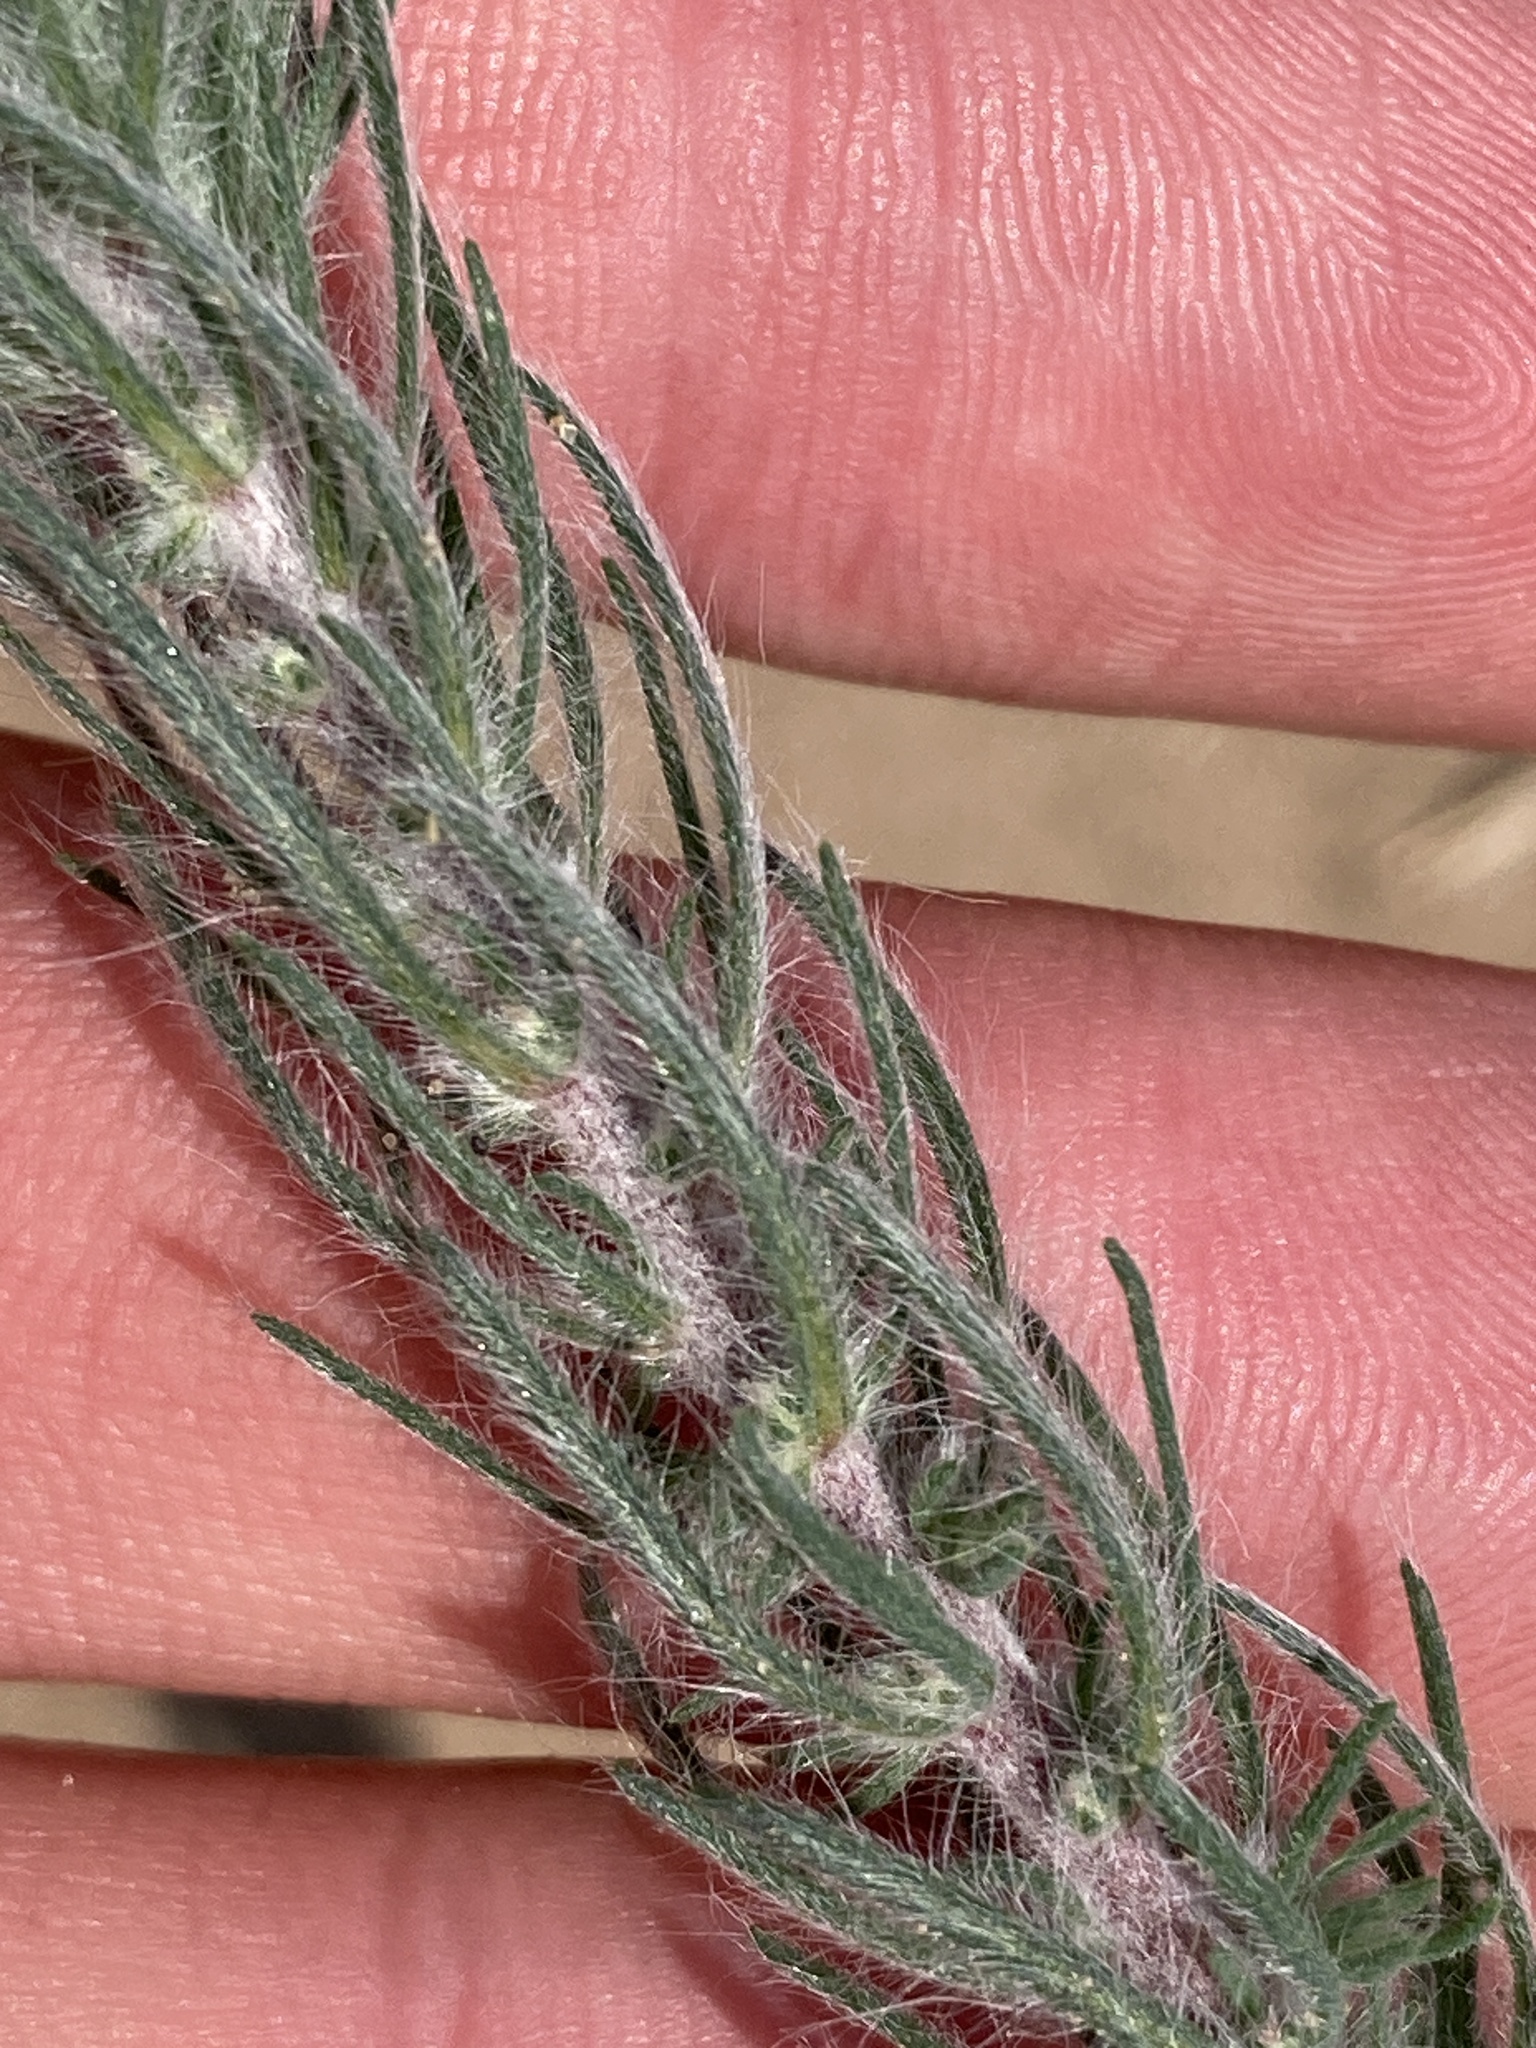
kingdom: Plantae
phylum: Tracheophyta
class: Magnoliopsida
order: Caryophyllales
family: Amaranthaceae
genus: Sedobassia
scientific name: Sedobassia sedoides
